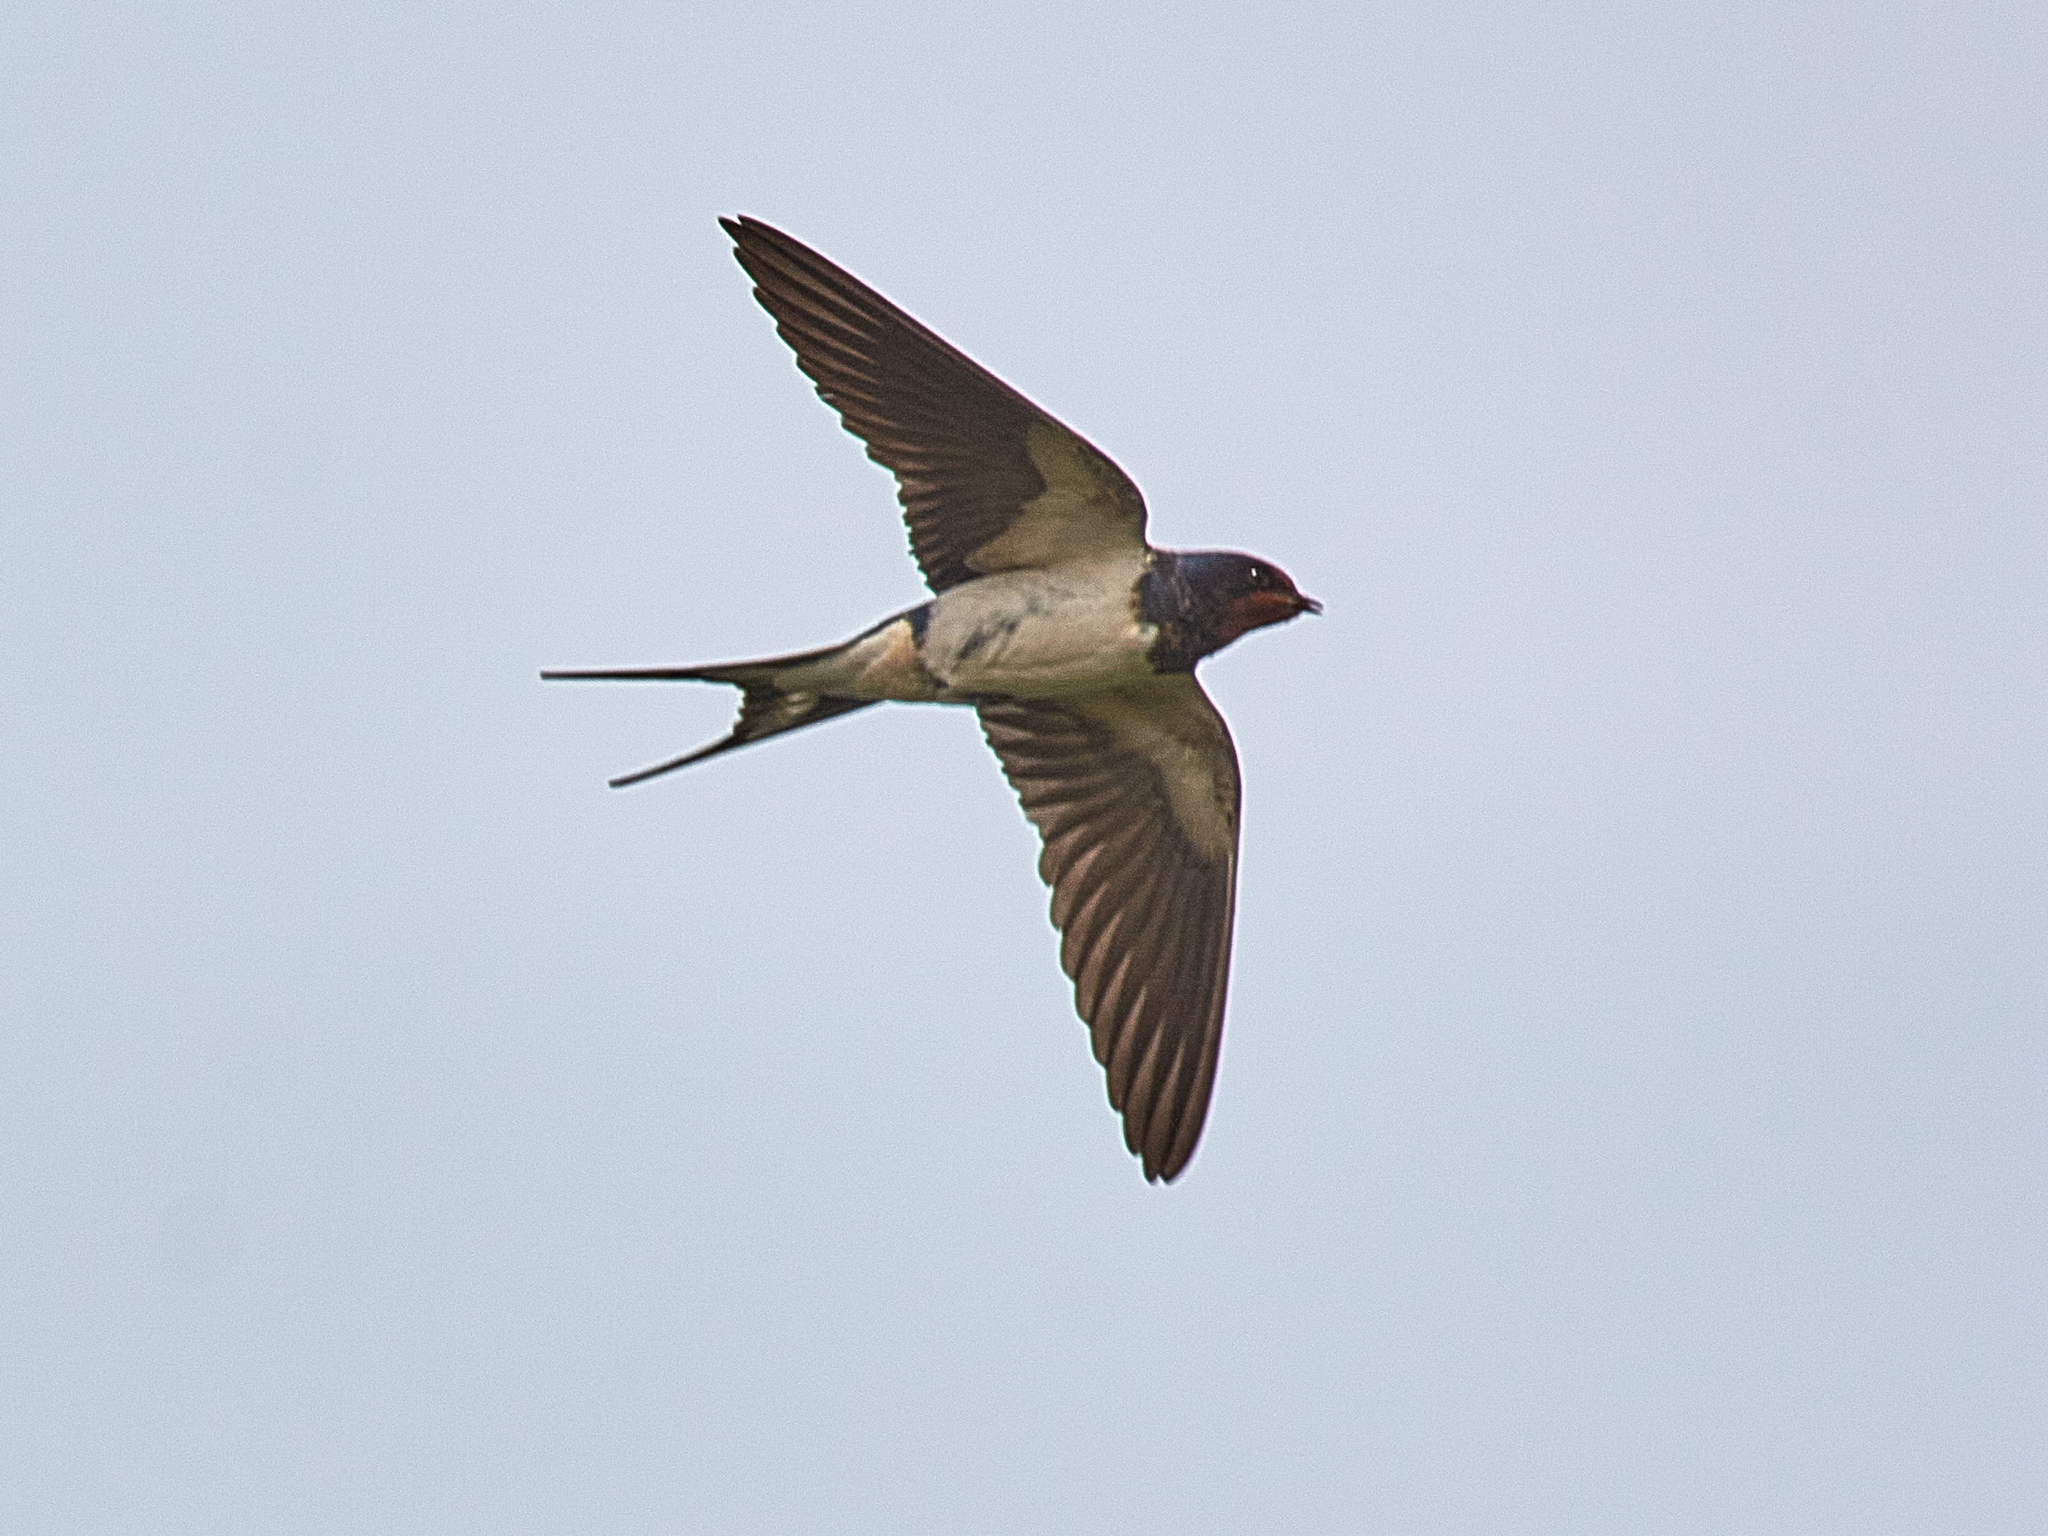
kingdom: Animalia
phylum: Chordata
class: Aves
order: Passeriformes
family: Hirundinidae
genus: Hirundo
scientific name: Hirundo rustica
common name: Barn swallow
